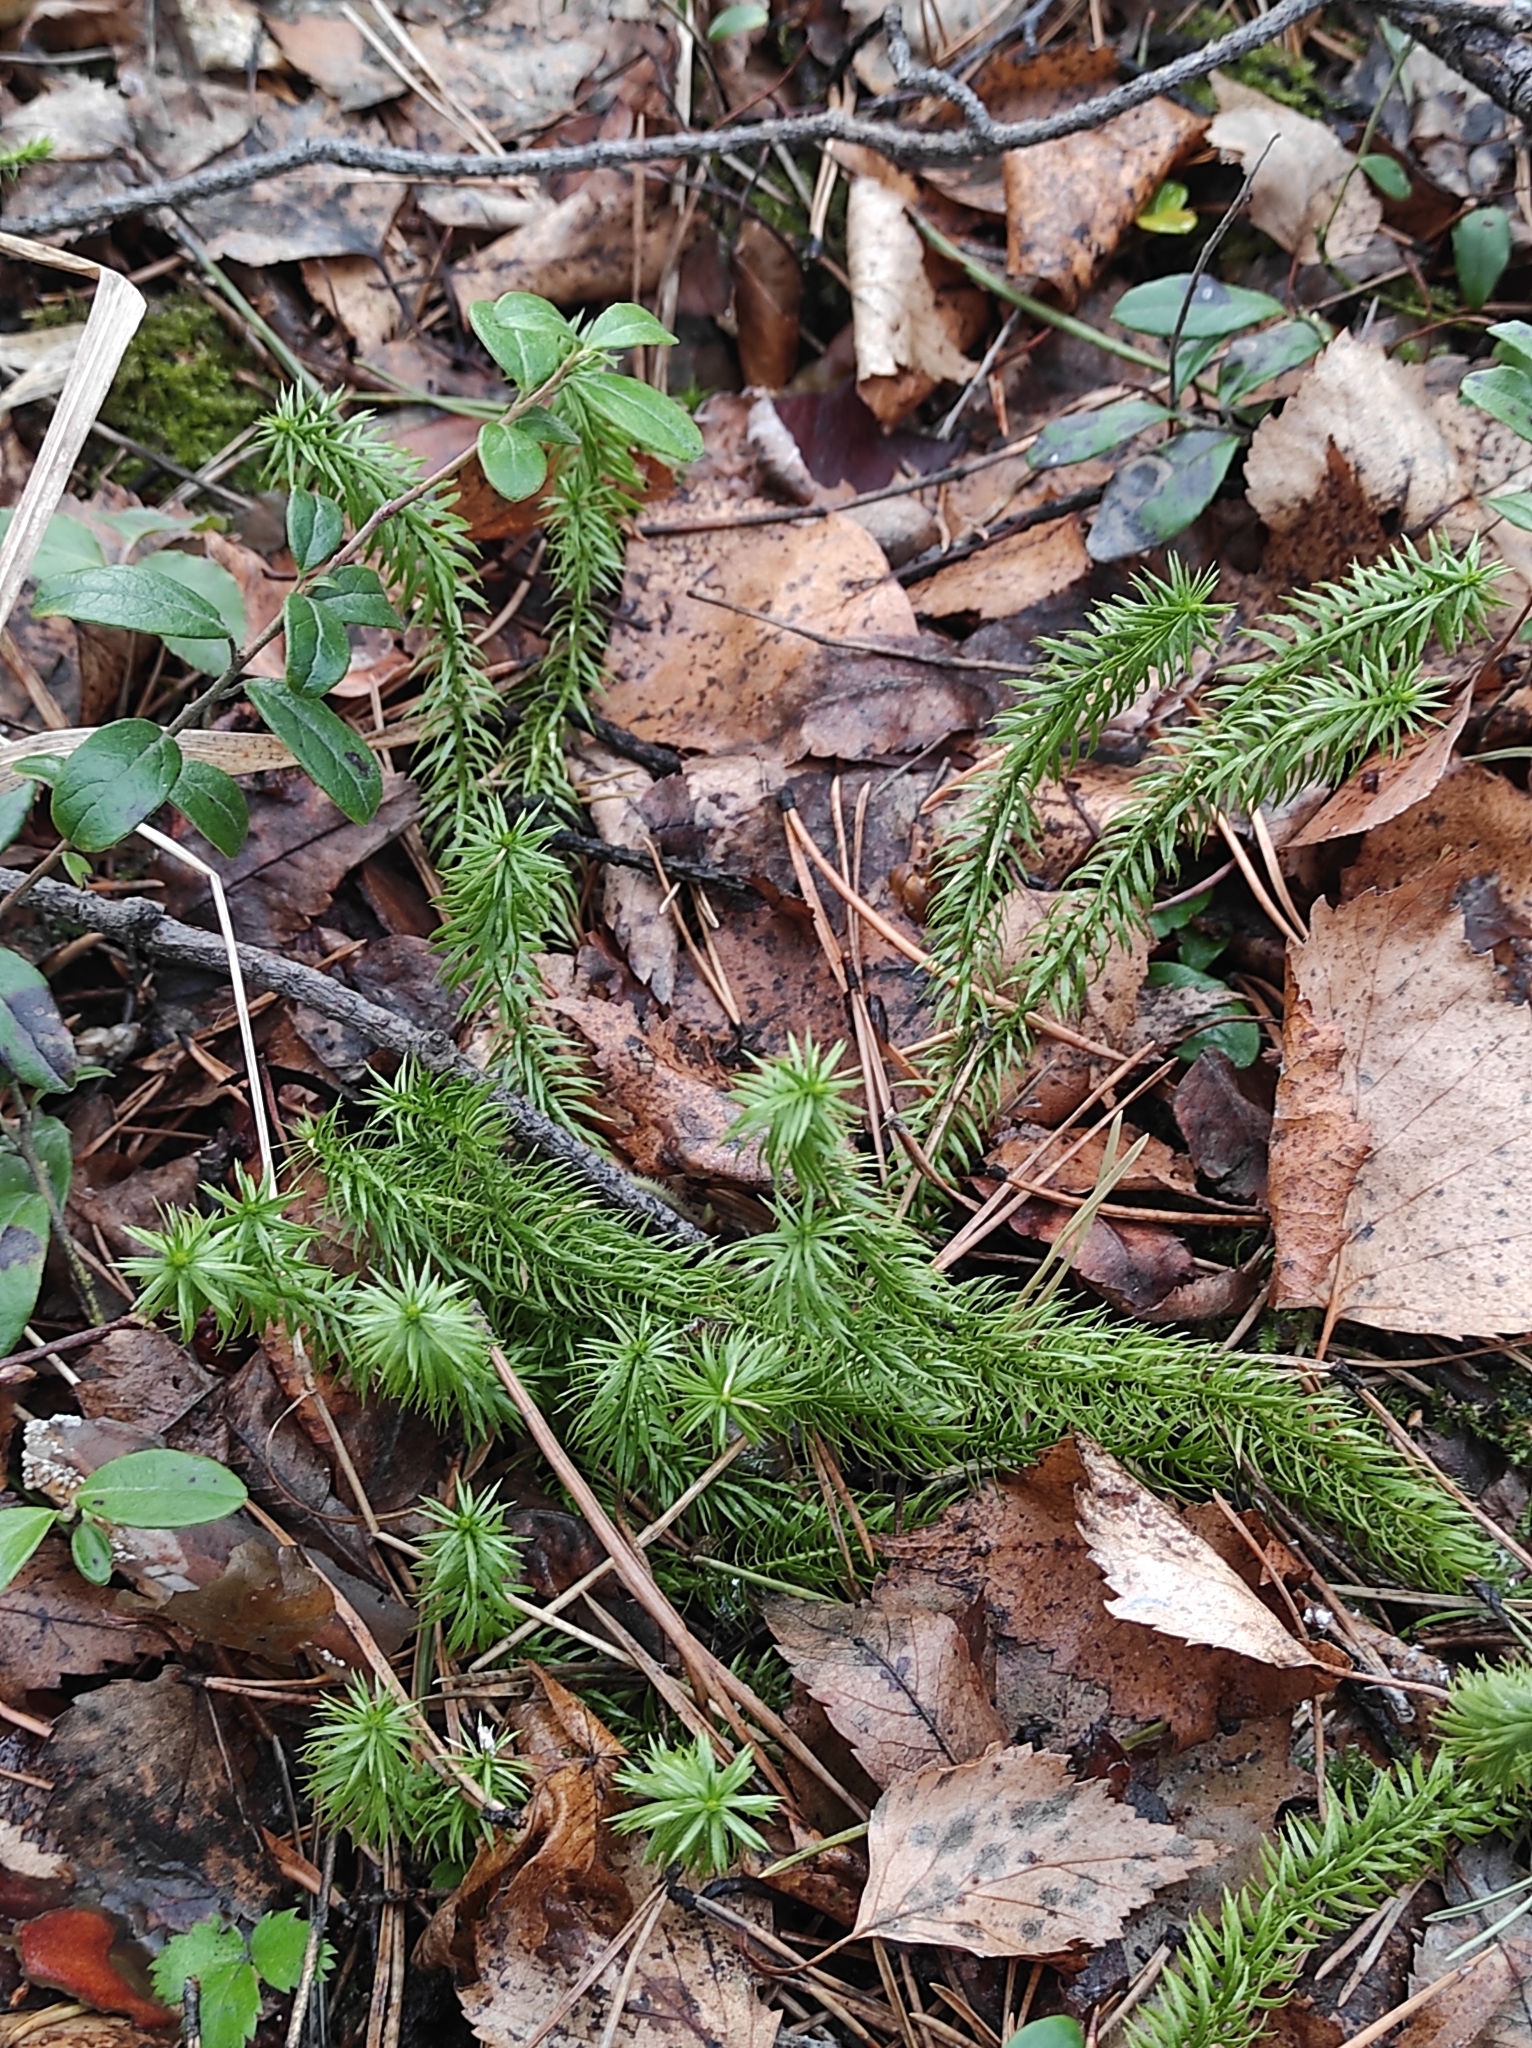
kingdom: Plantae
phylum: Tracheophyta
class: Lycopodiopsida
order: Lycopodiales
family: Lycopodiaceae
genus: Spinulum
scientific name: Spinulum annotinum
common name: Interrupted club-moss
